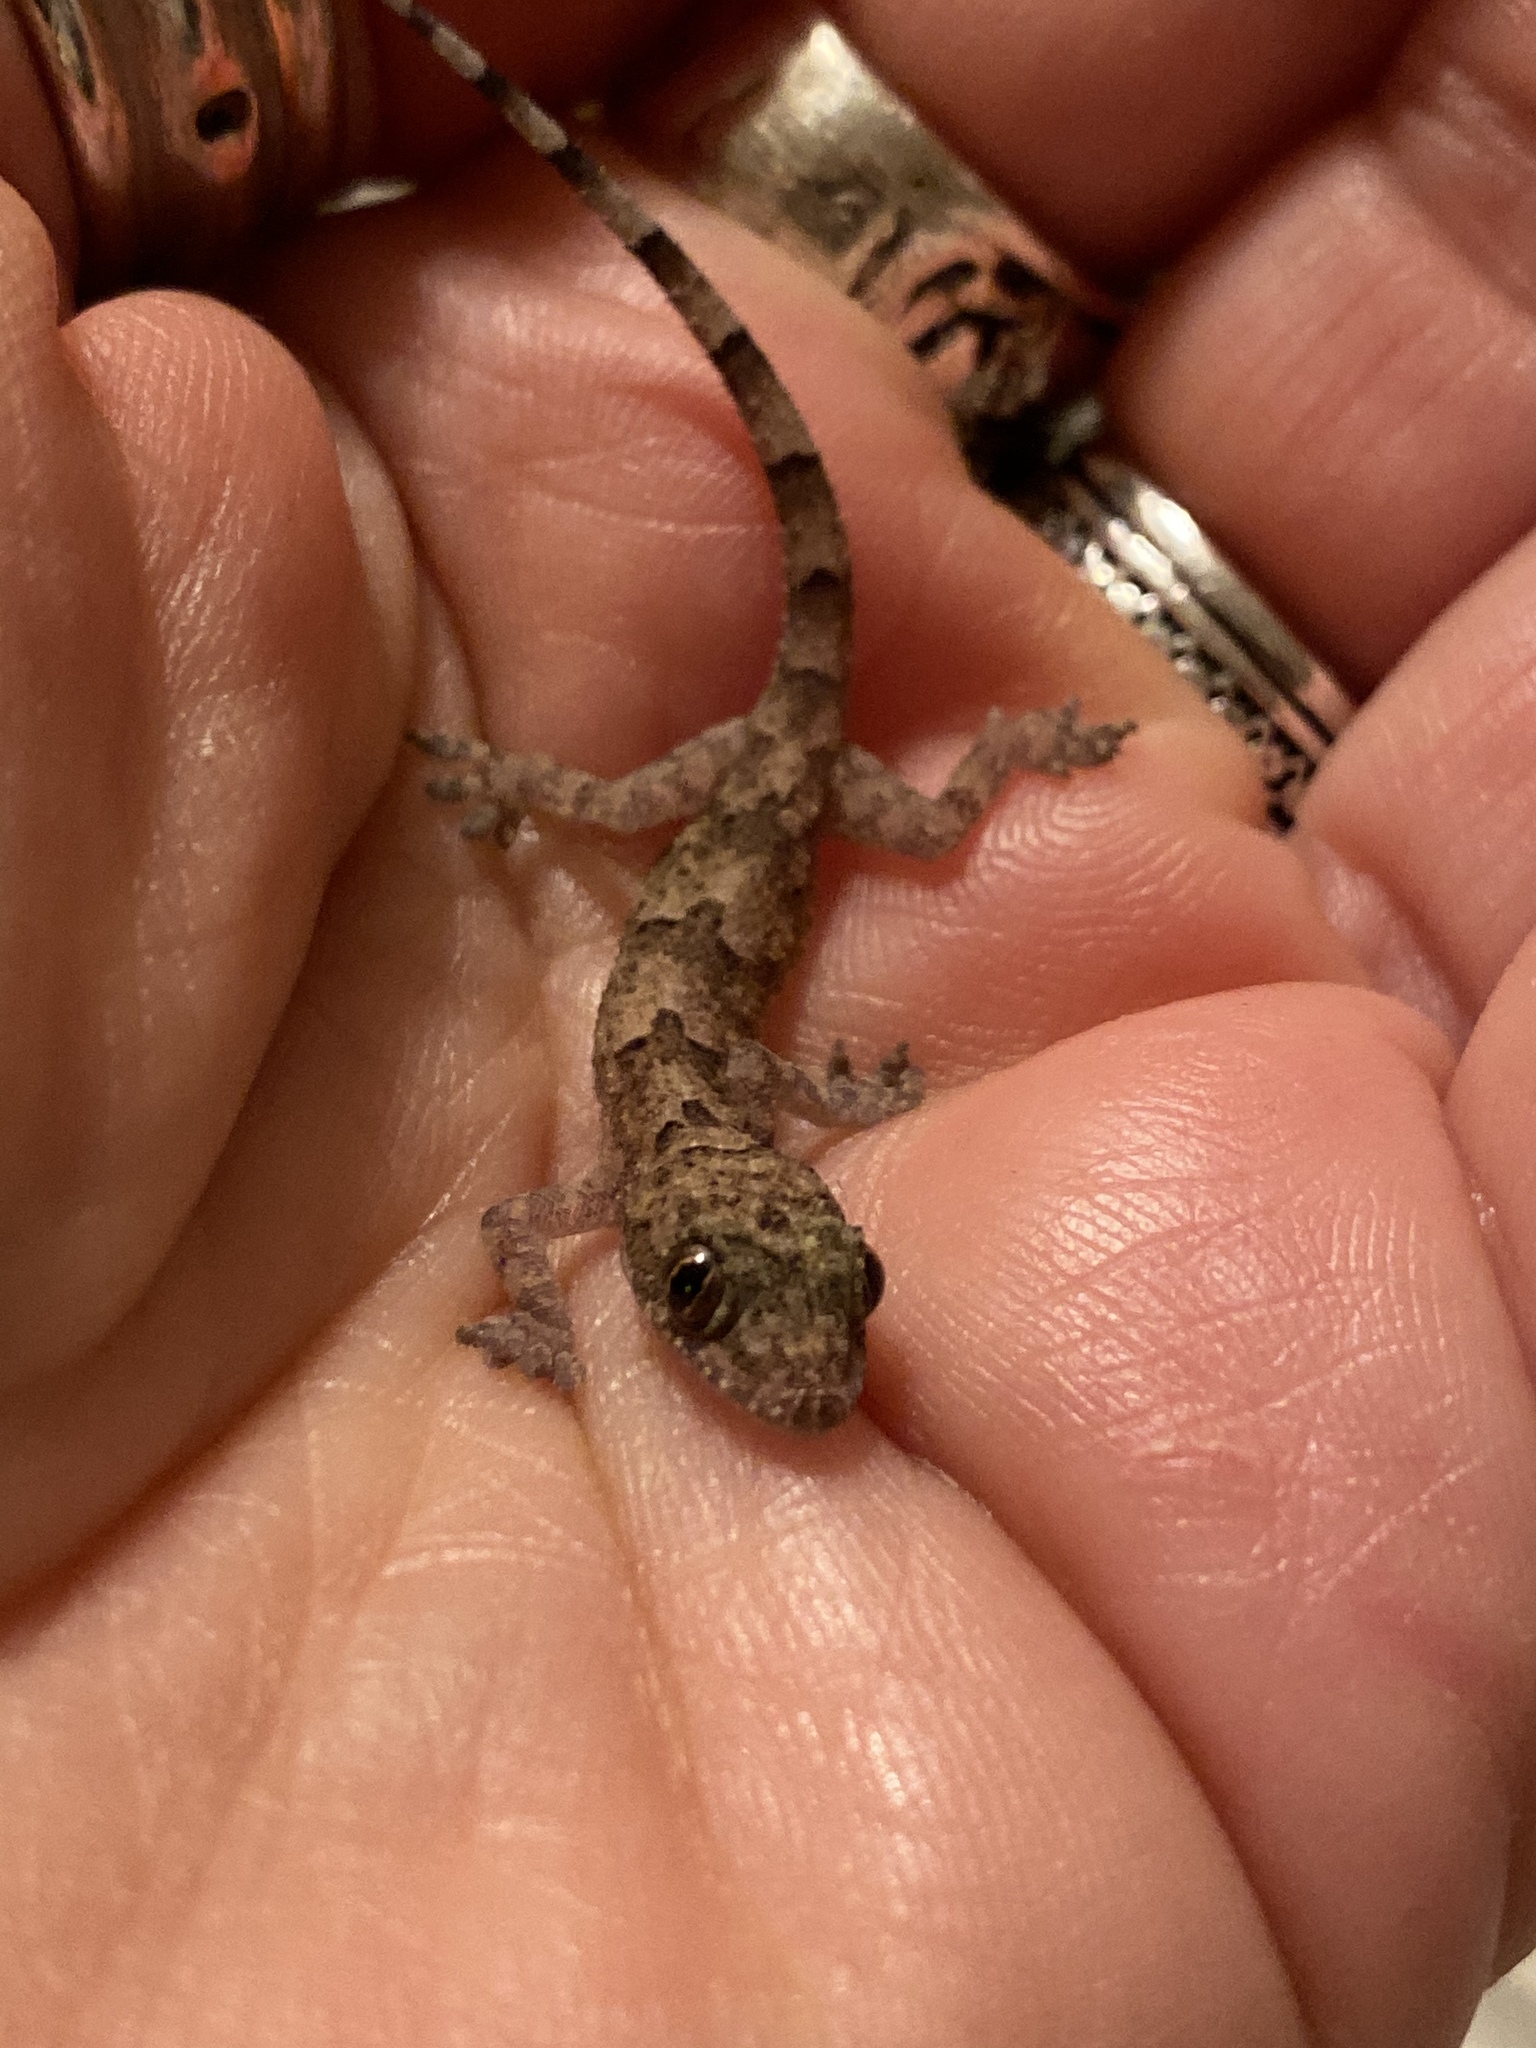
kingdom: Animalia
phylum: Chordata
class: Squamata
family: Gekkonidae
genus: Hemidactylus
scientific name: Hemidactylus mabouia
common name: House gecko
